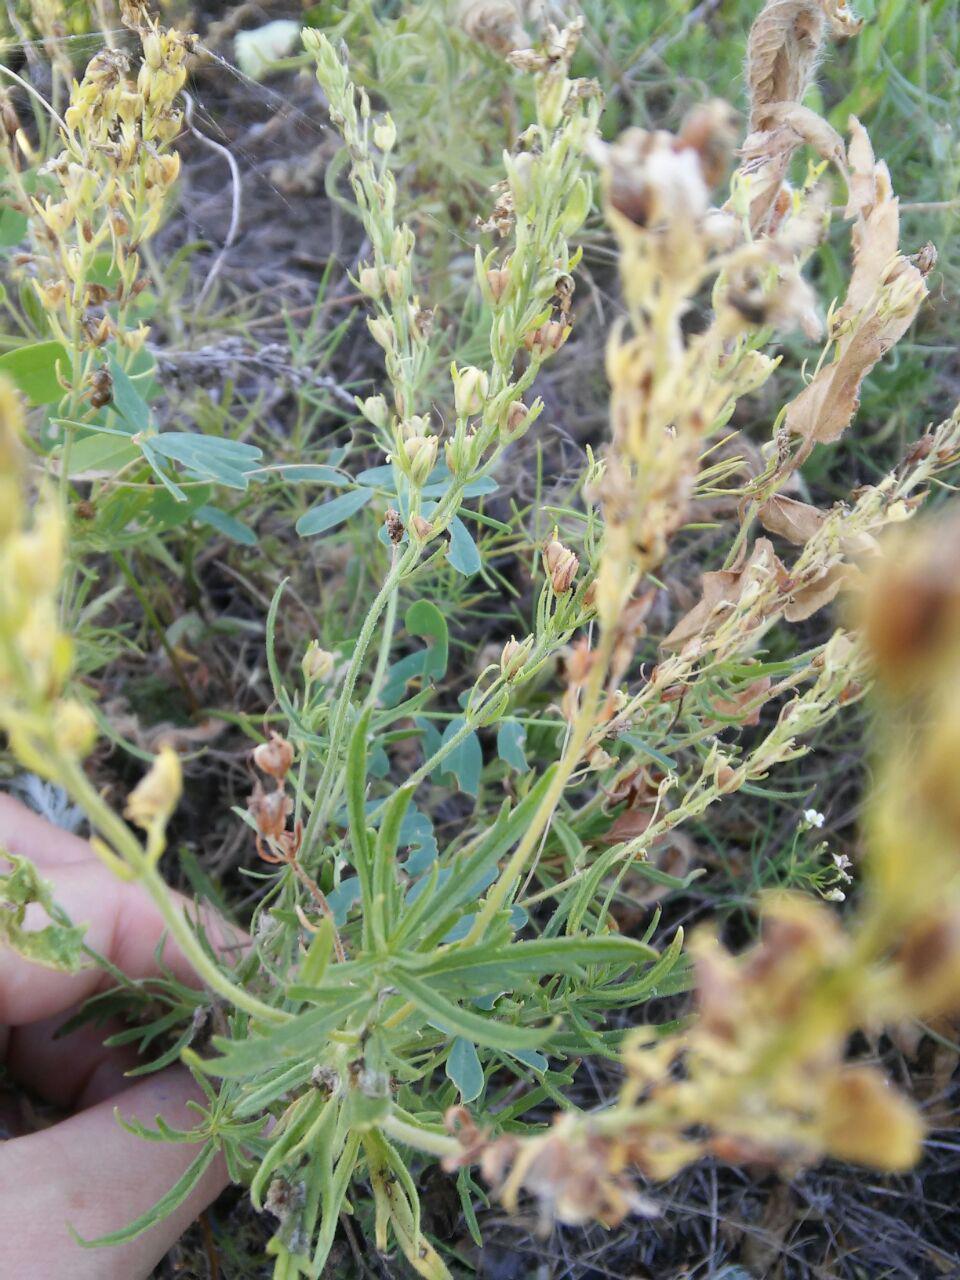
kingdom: Plantae
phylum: Tracheophyta
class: Magnoliopsida
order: Lamiales
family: Plantaginaceae
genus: Veronica
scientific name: Veronica austriaca
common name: Large speedwell
